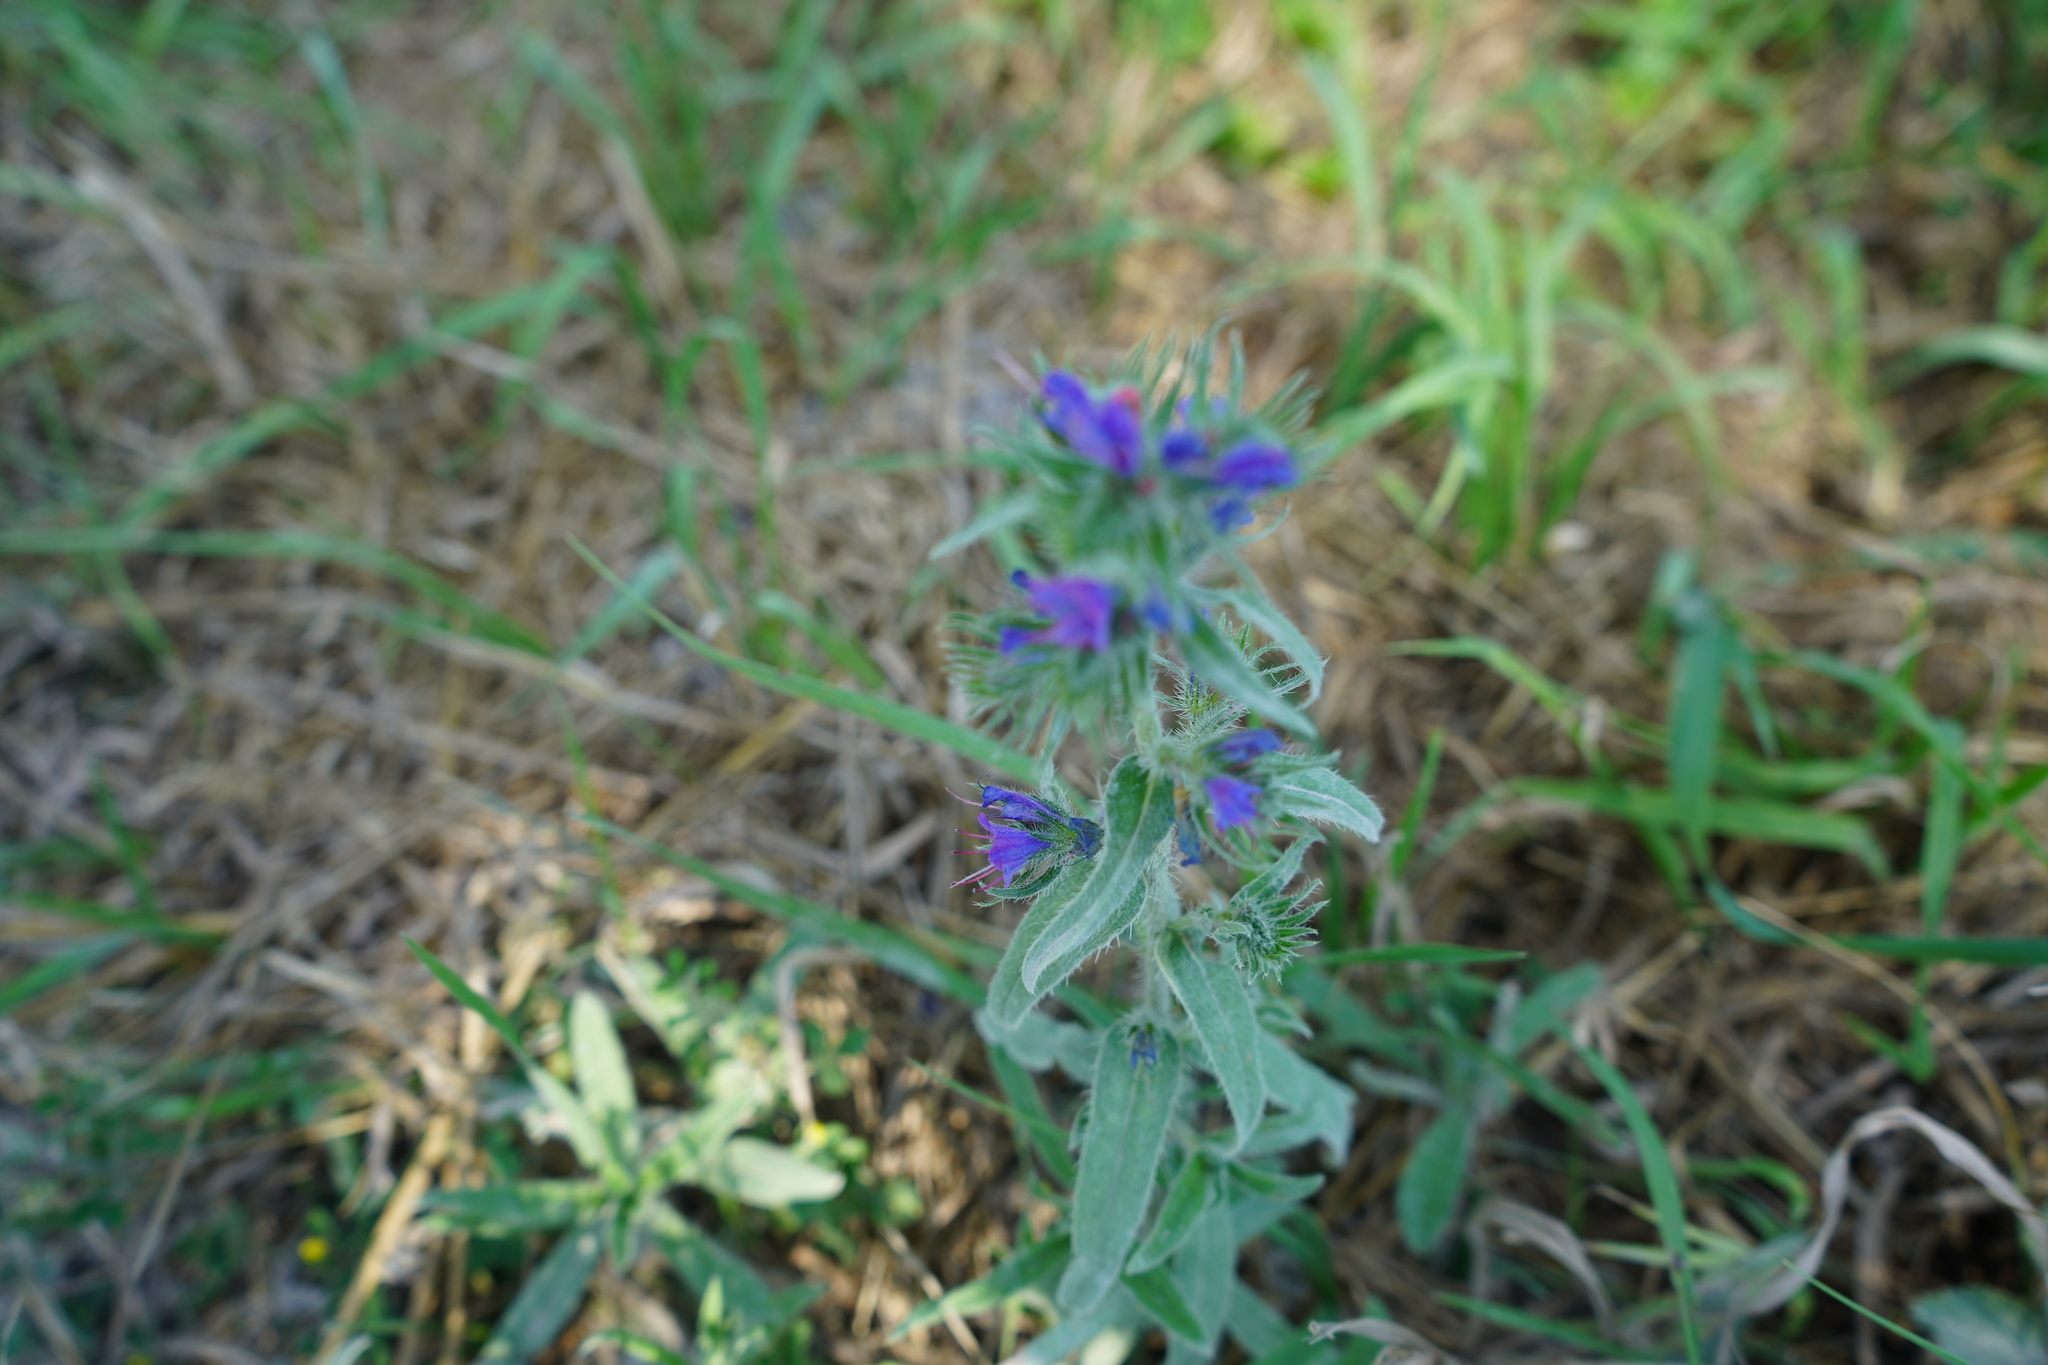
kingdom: Plantae
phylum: Tracheophyta
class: Magnoliopsida
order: Boraginales
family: Boraginaceae
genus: Echium
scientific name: Echium vulgare
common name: Common viper's bugloss
